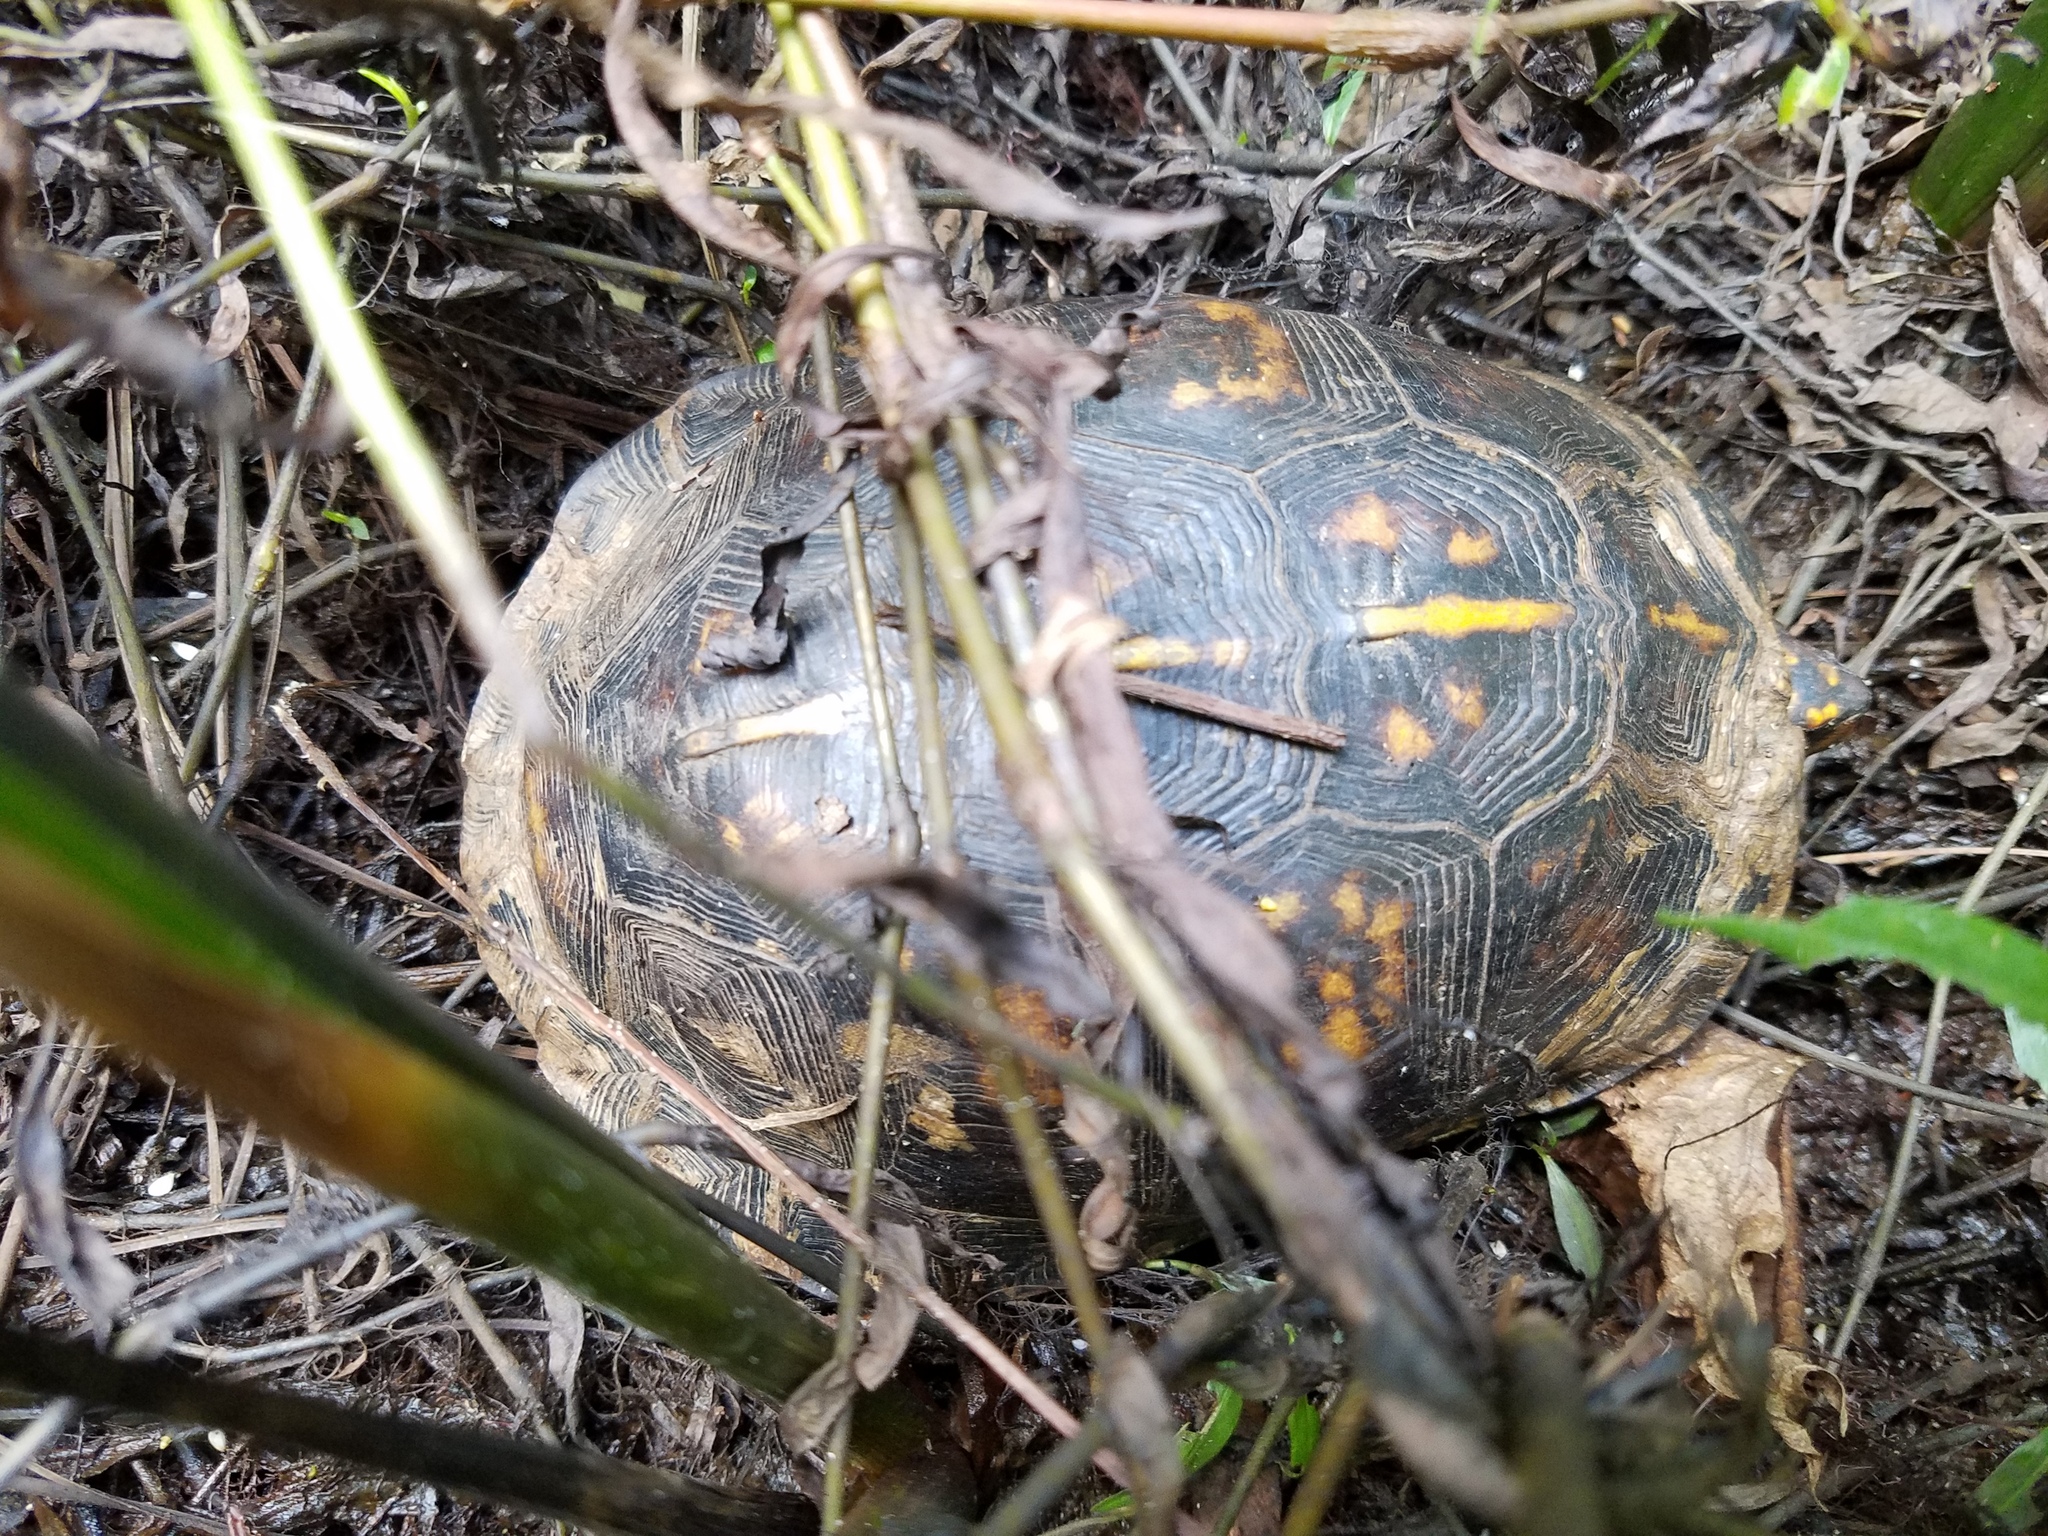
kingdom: Animalia
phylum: Chordata
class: Testudines
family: Emydidae
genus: Terrapene
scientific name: Terrapene carolina
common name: Common box turtle
